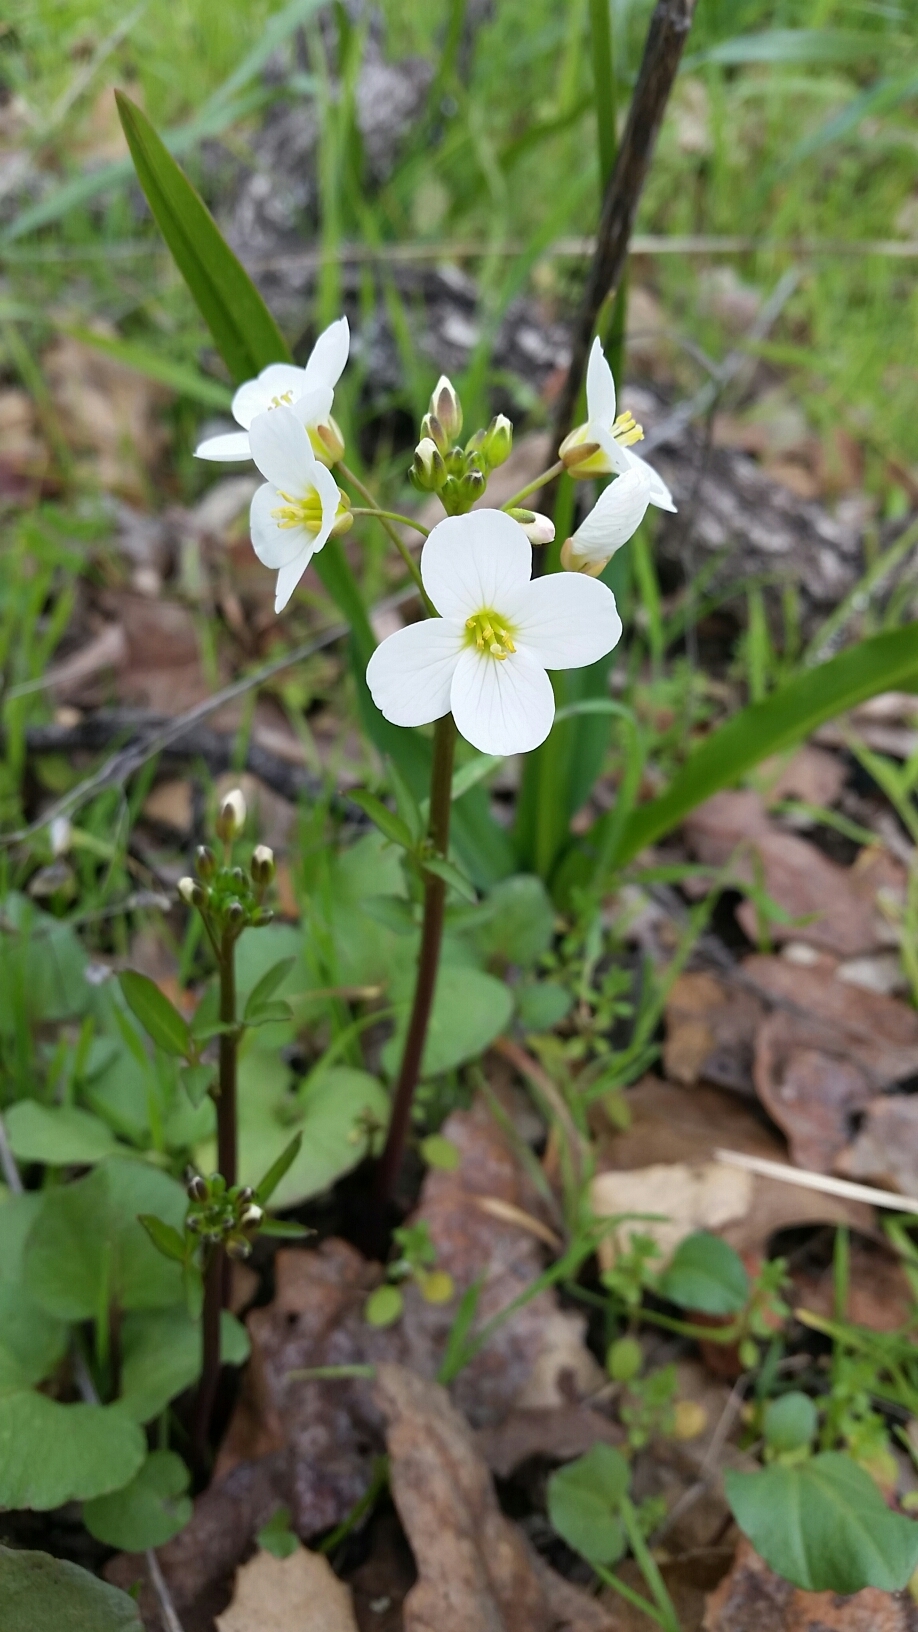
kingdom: Plantae
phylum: Tracheophyta
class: Magnoliopsida
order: Brassicales
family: Brassicaceae
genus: Cardamine
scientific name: Cardamine californica
